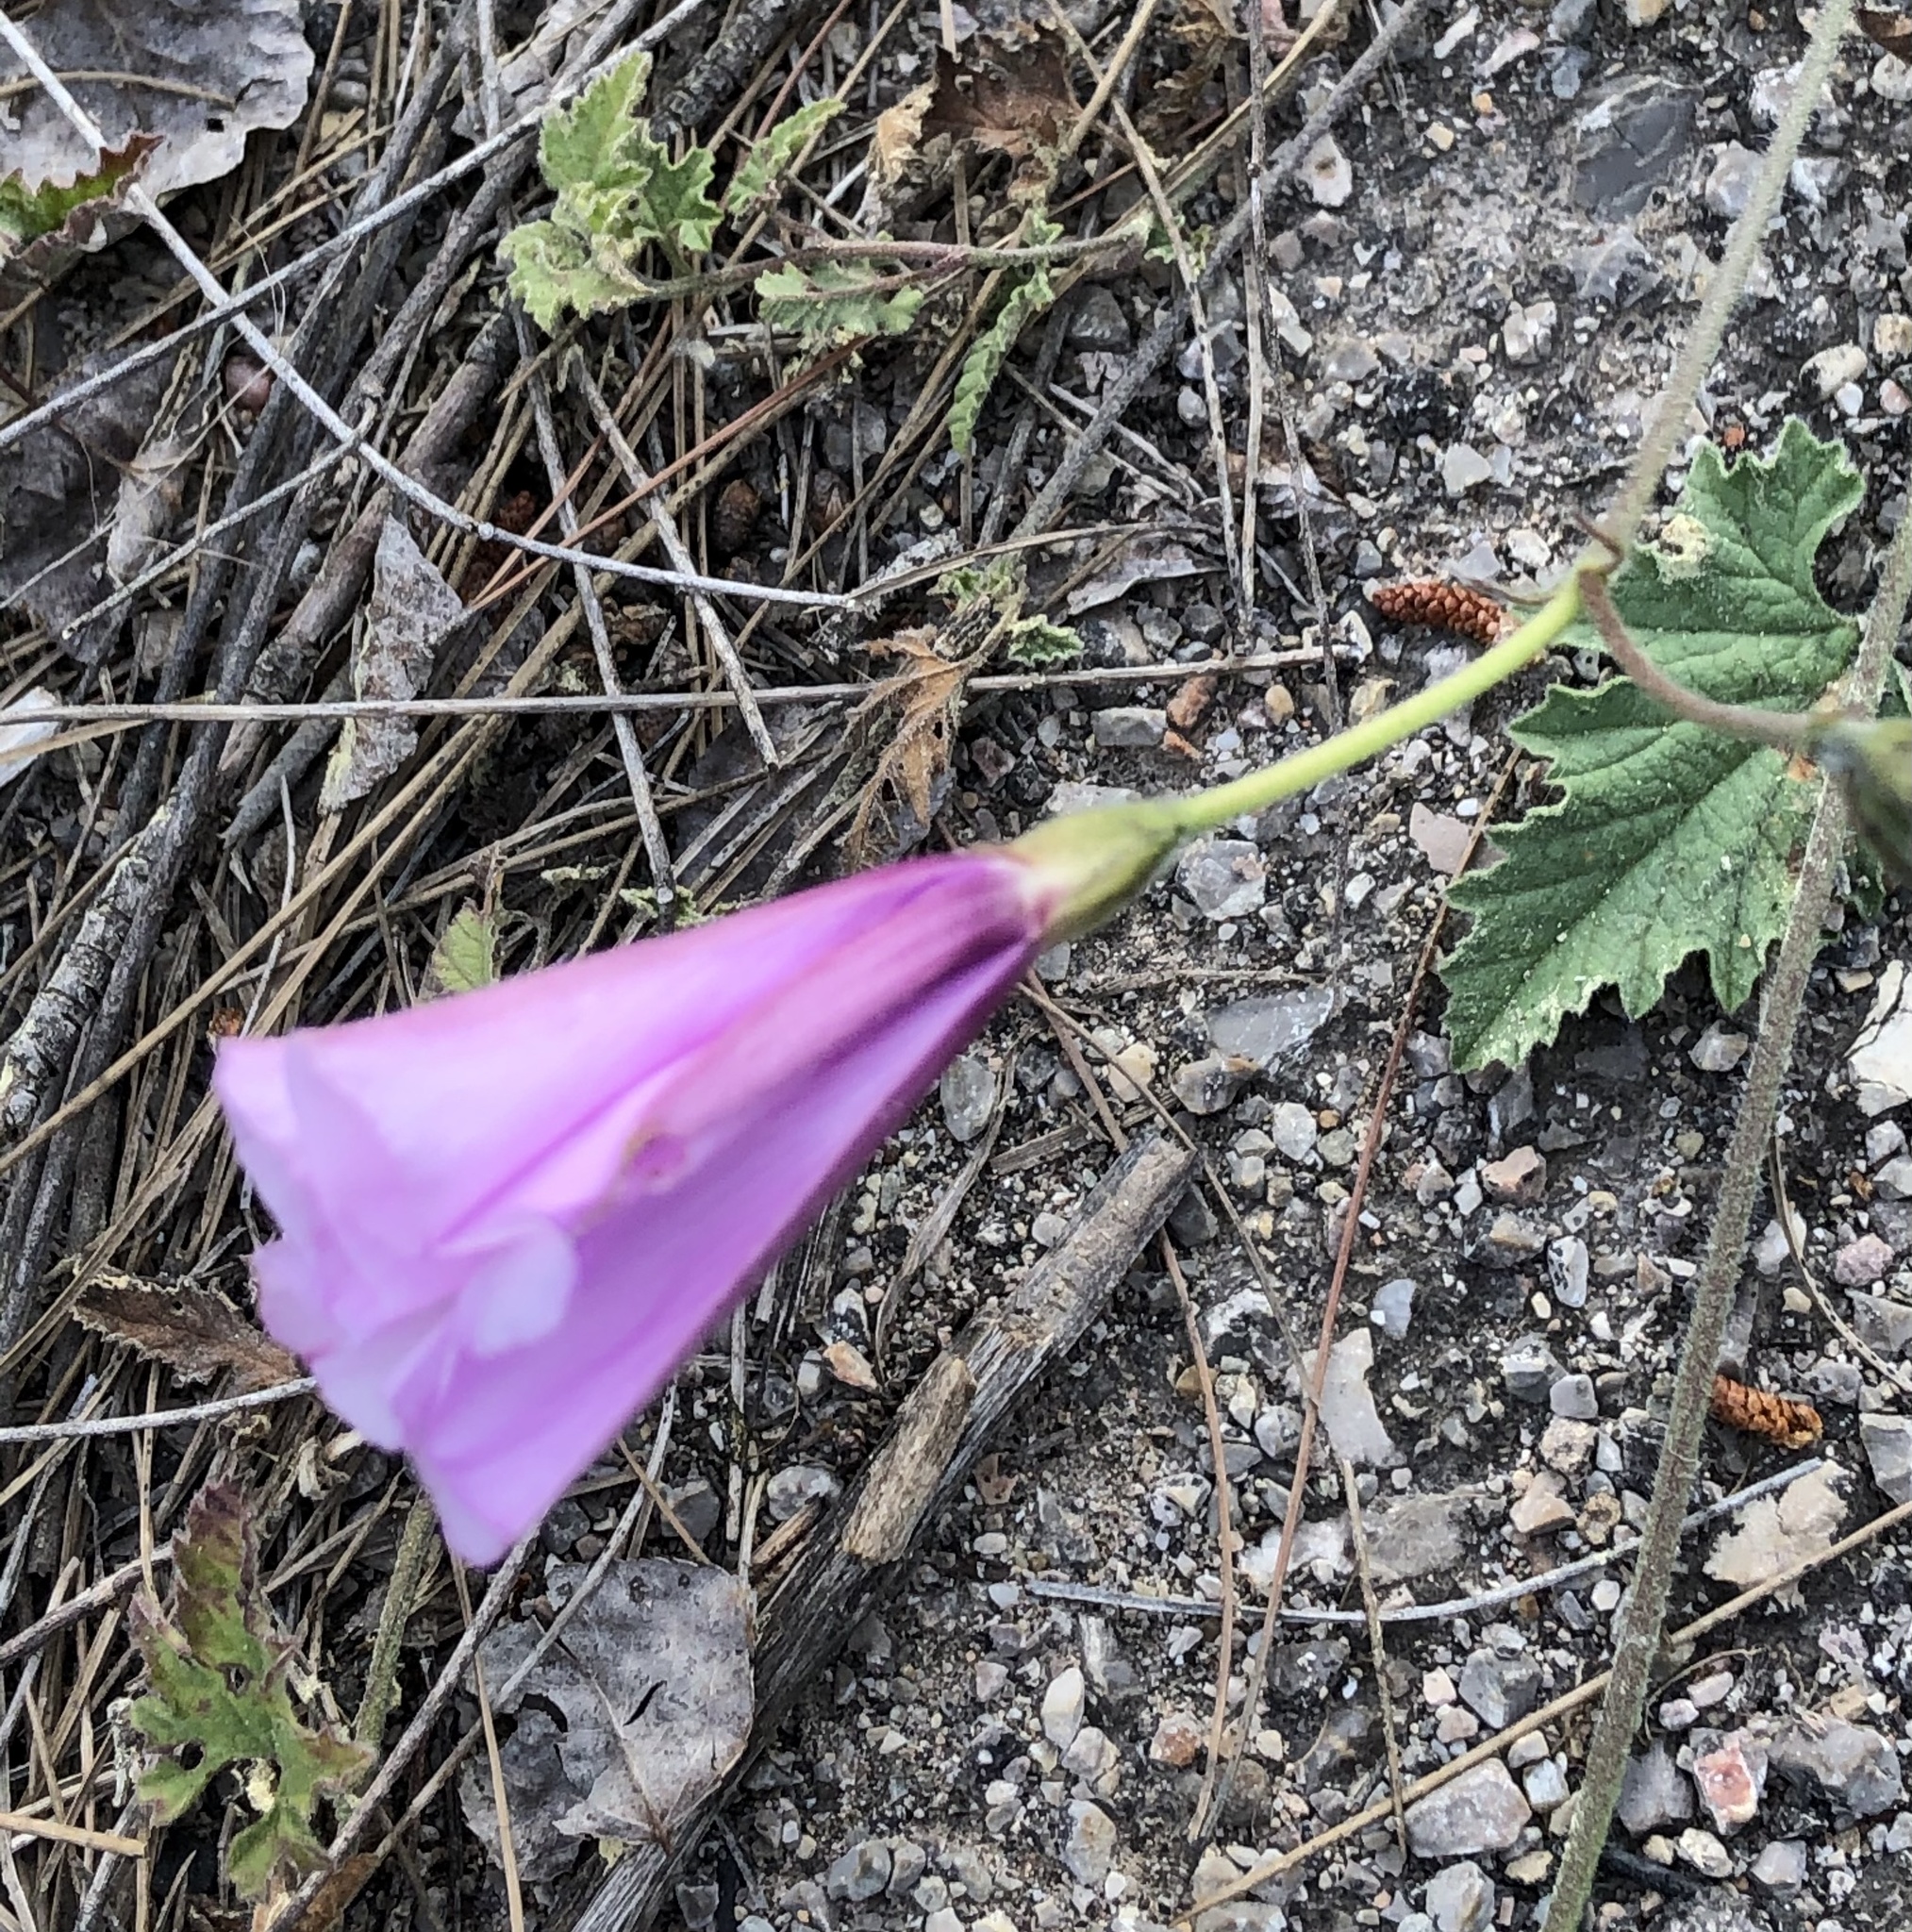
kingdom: Plantae
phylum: Tracheophyta
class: Magnoliopsida
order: Solanales
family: Convolvulaceae
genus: Convolvulus
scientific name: Convolvulus althaeoides
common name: Mallow bindweed
